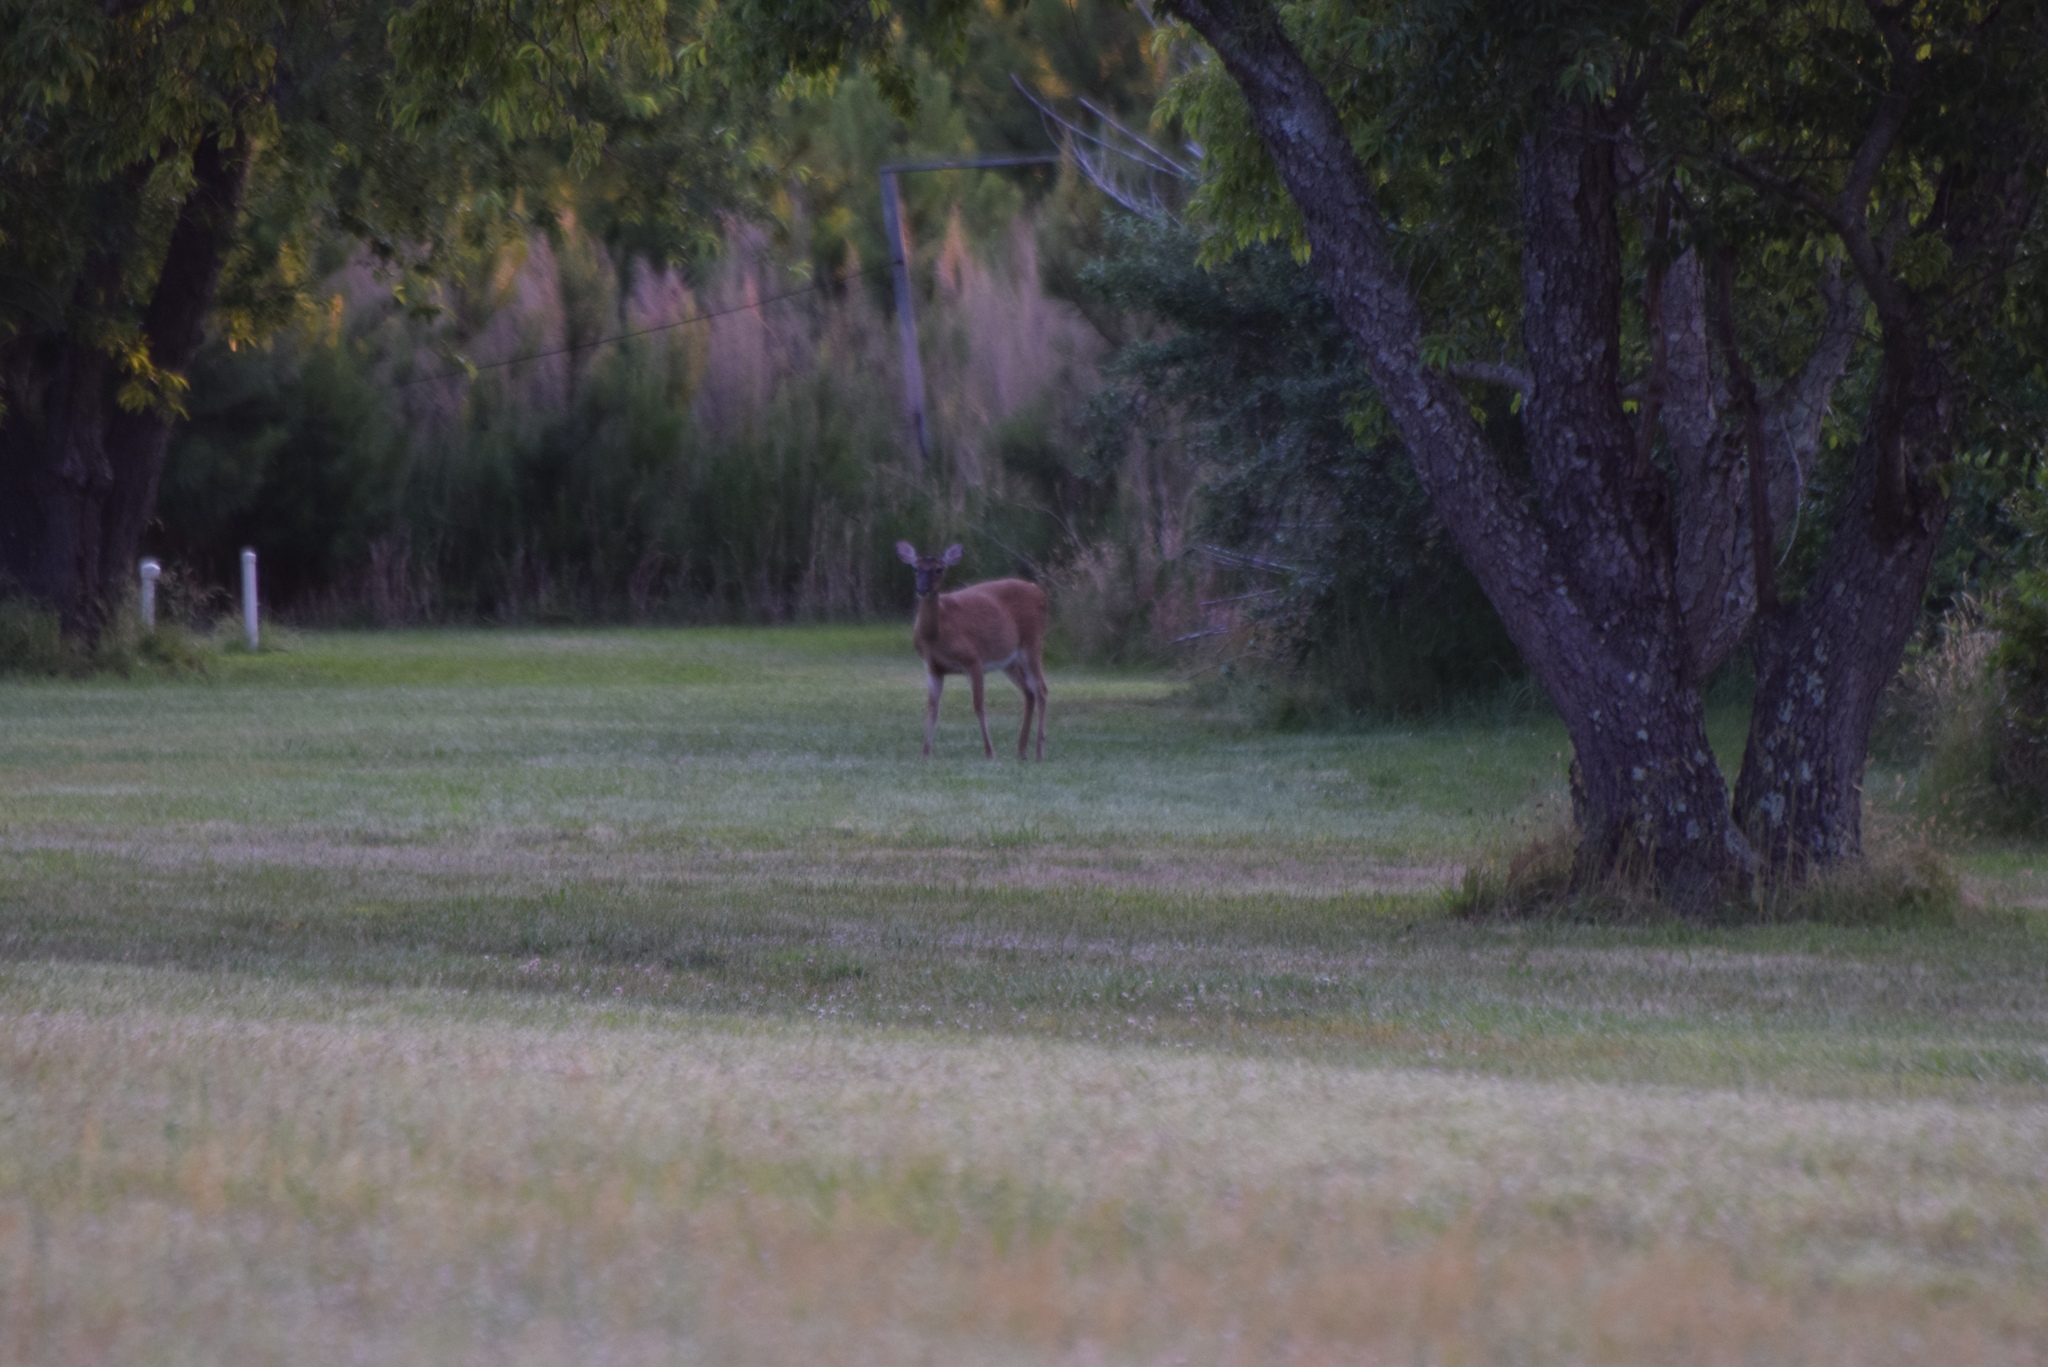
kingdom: Animalia
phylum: Chordata
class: Mammalia
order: Artiodactyla
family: Cervidae
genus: Odocoileus
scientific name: Odocoileus virginianus
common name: White-tailed deer
